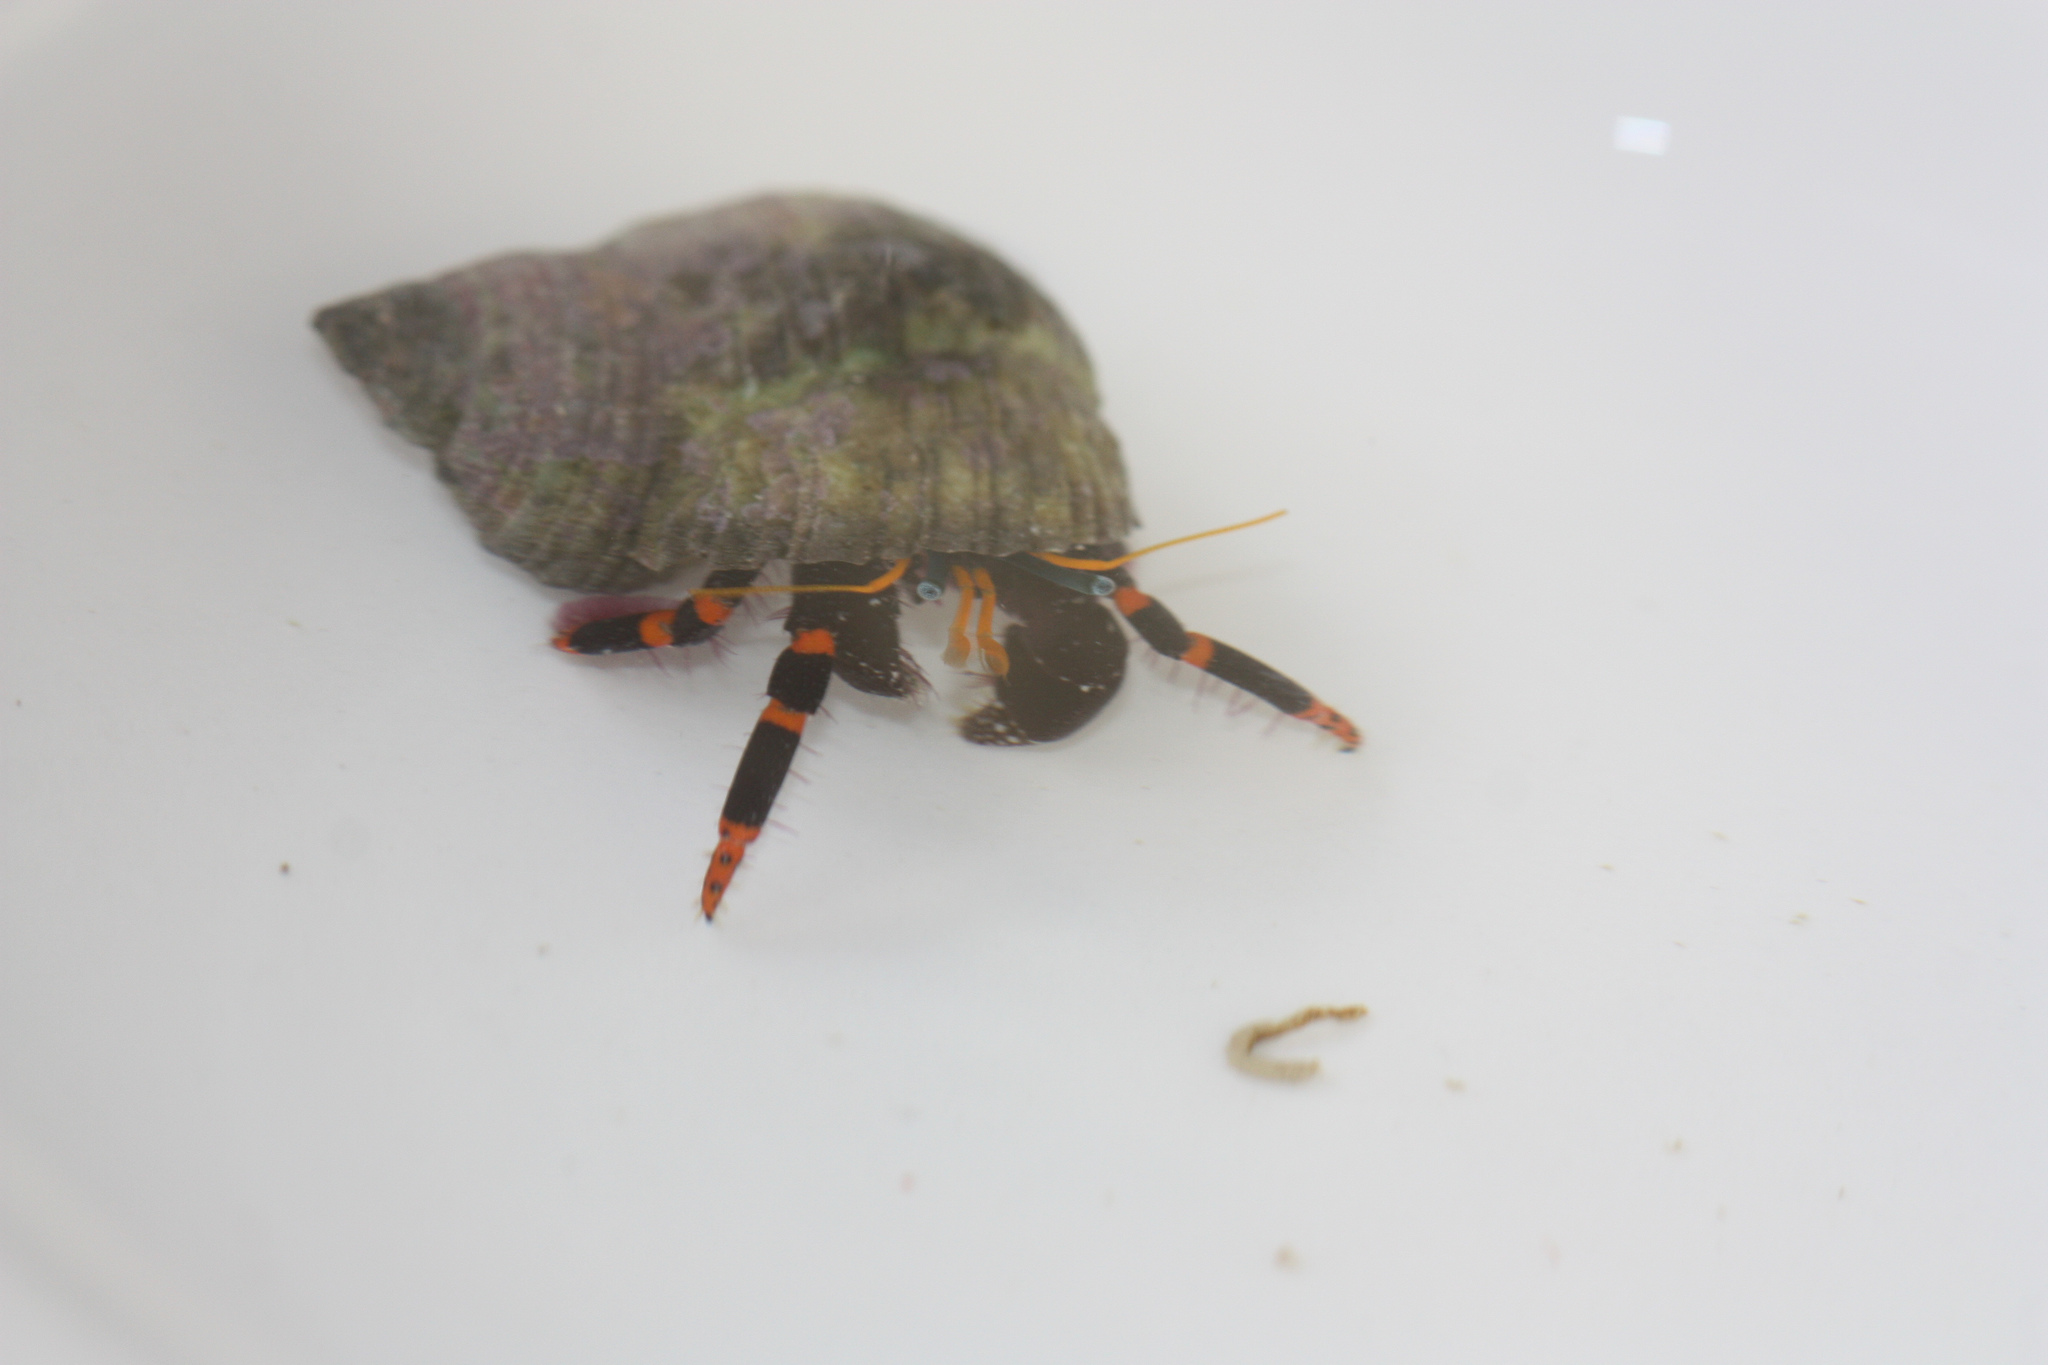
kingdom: Animalia
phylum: Arthropoda
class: Malacostraca
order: Decapoda
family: Diogenidae
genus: Calcinus
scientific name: Calcinus pictus
